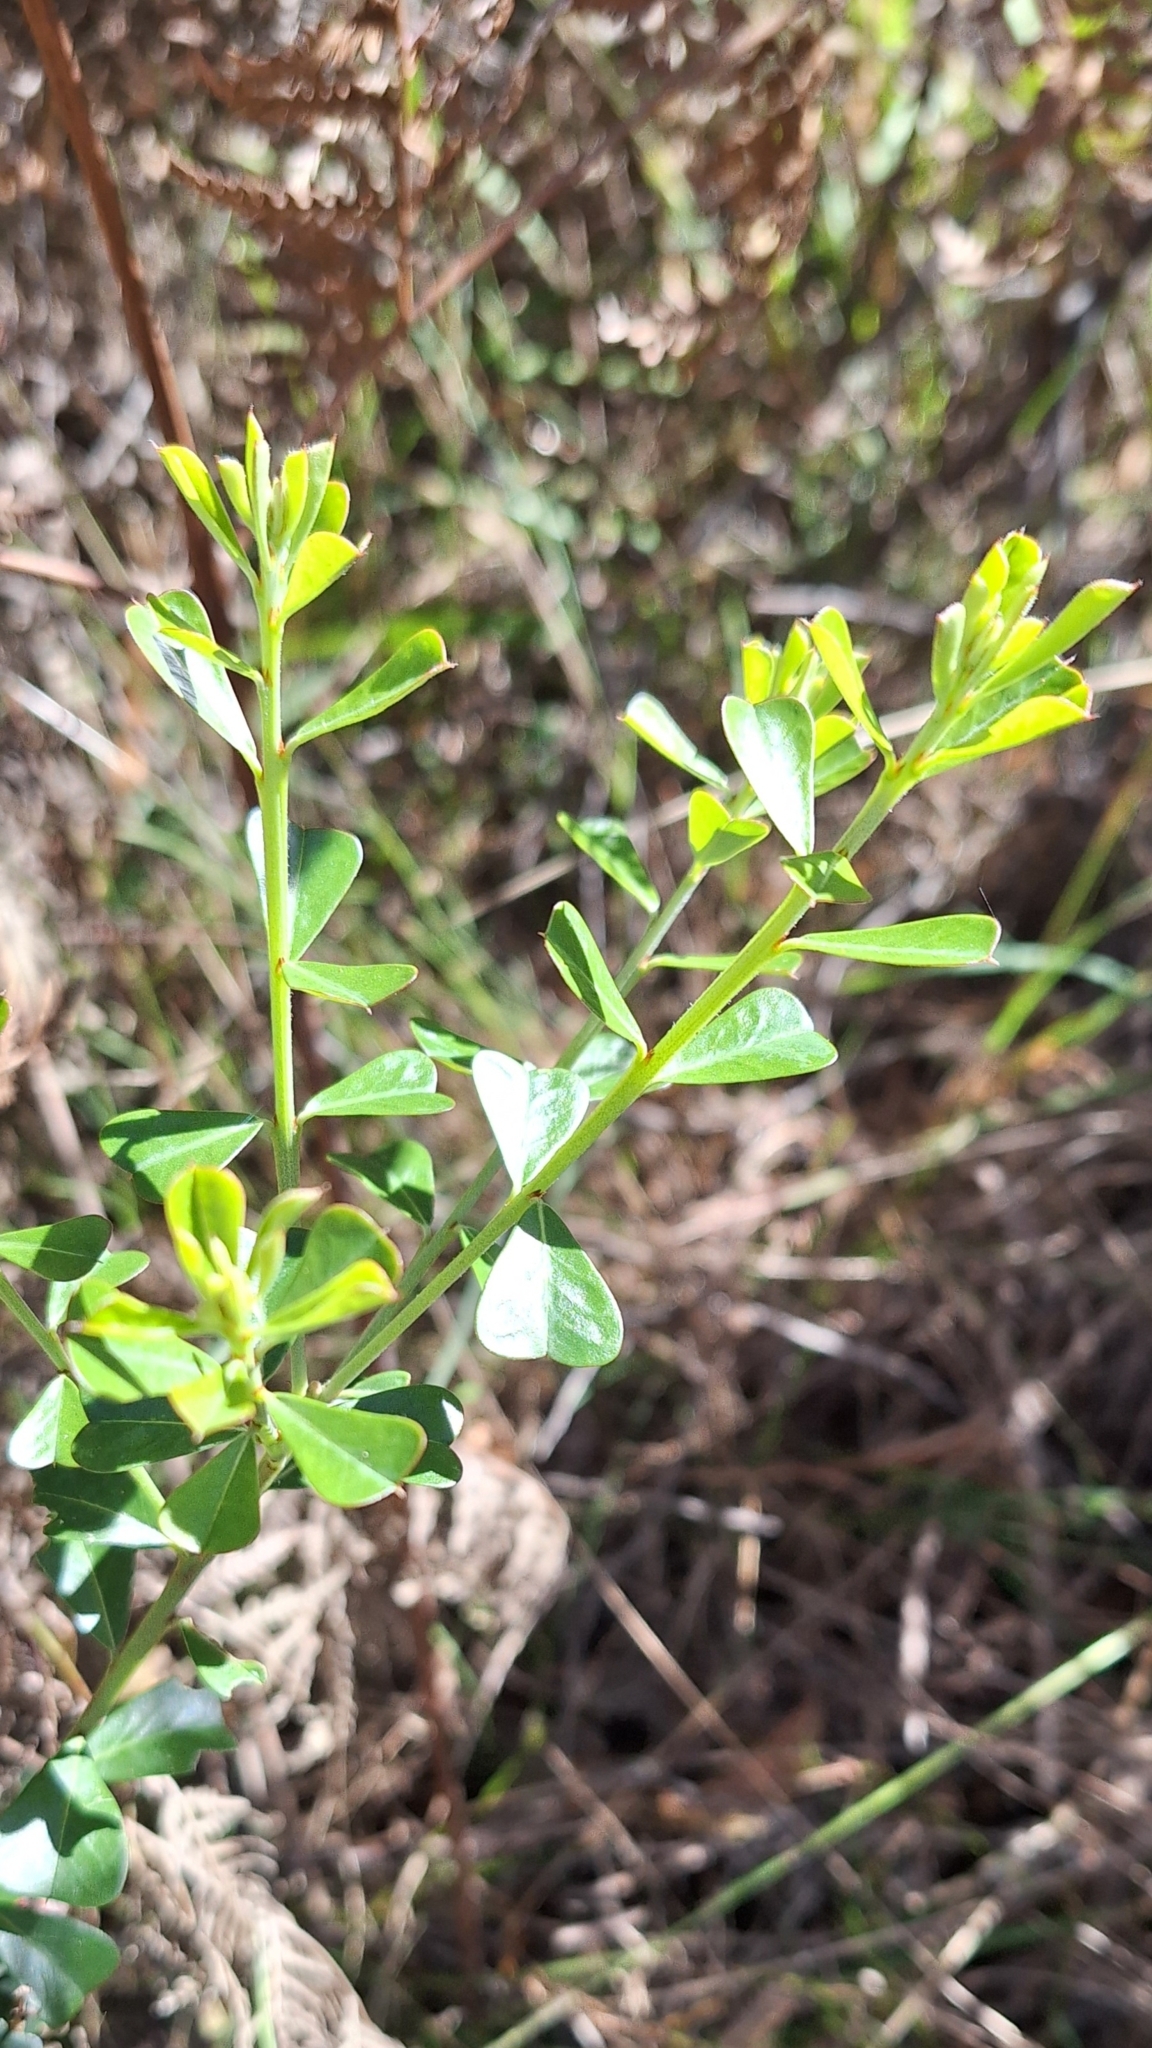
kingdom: Plantae
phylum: Tracheophyta
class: Magnoliopsida
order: Fabales
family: Fabaceae
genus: Pultenaea
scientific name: Pultenaea daphnoides
